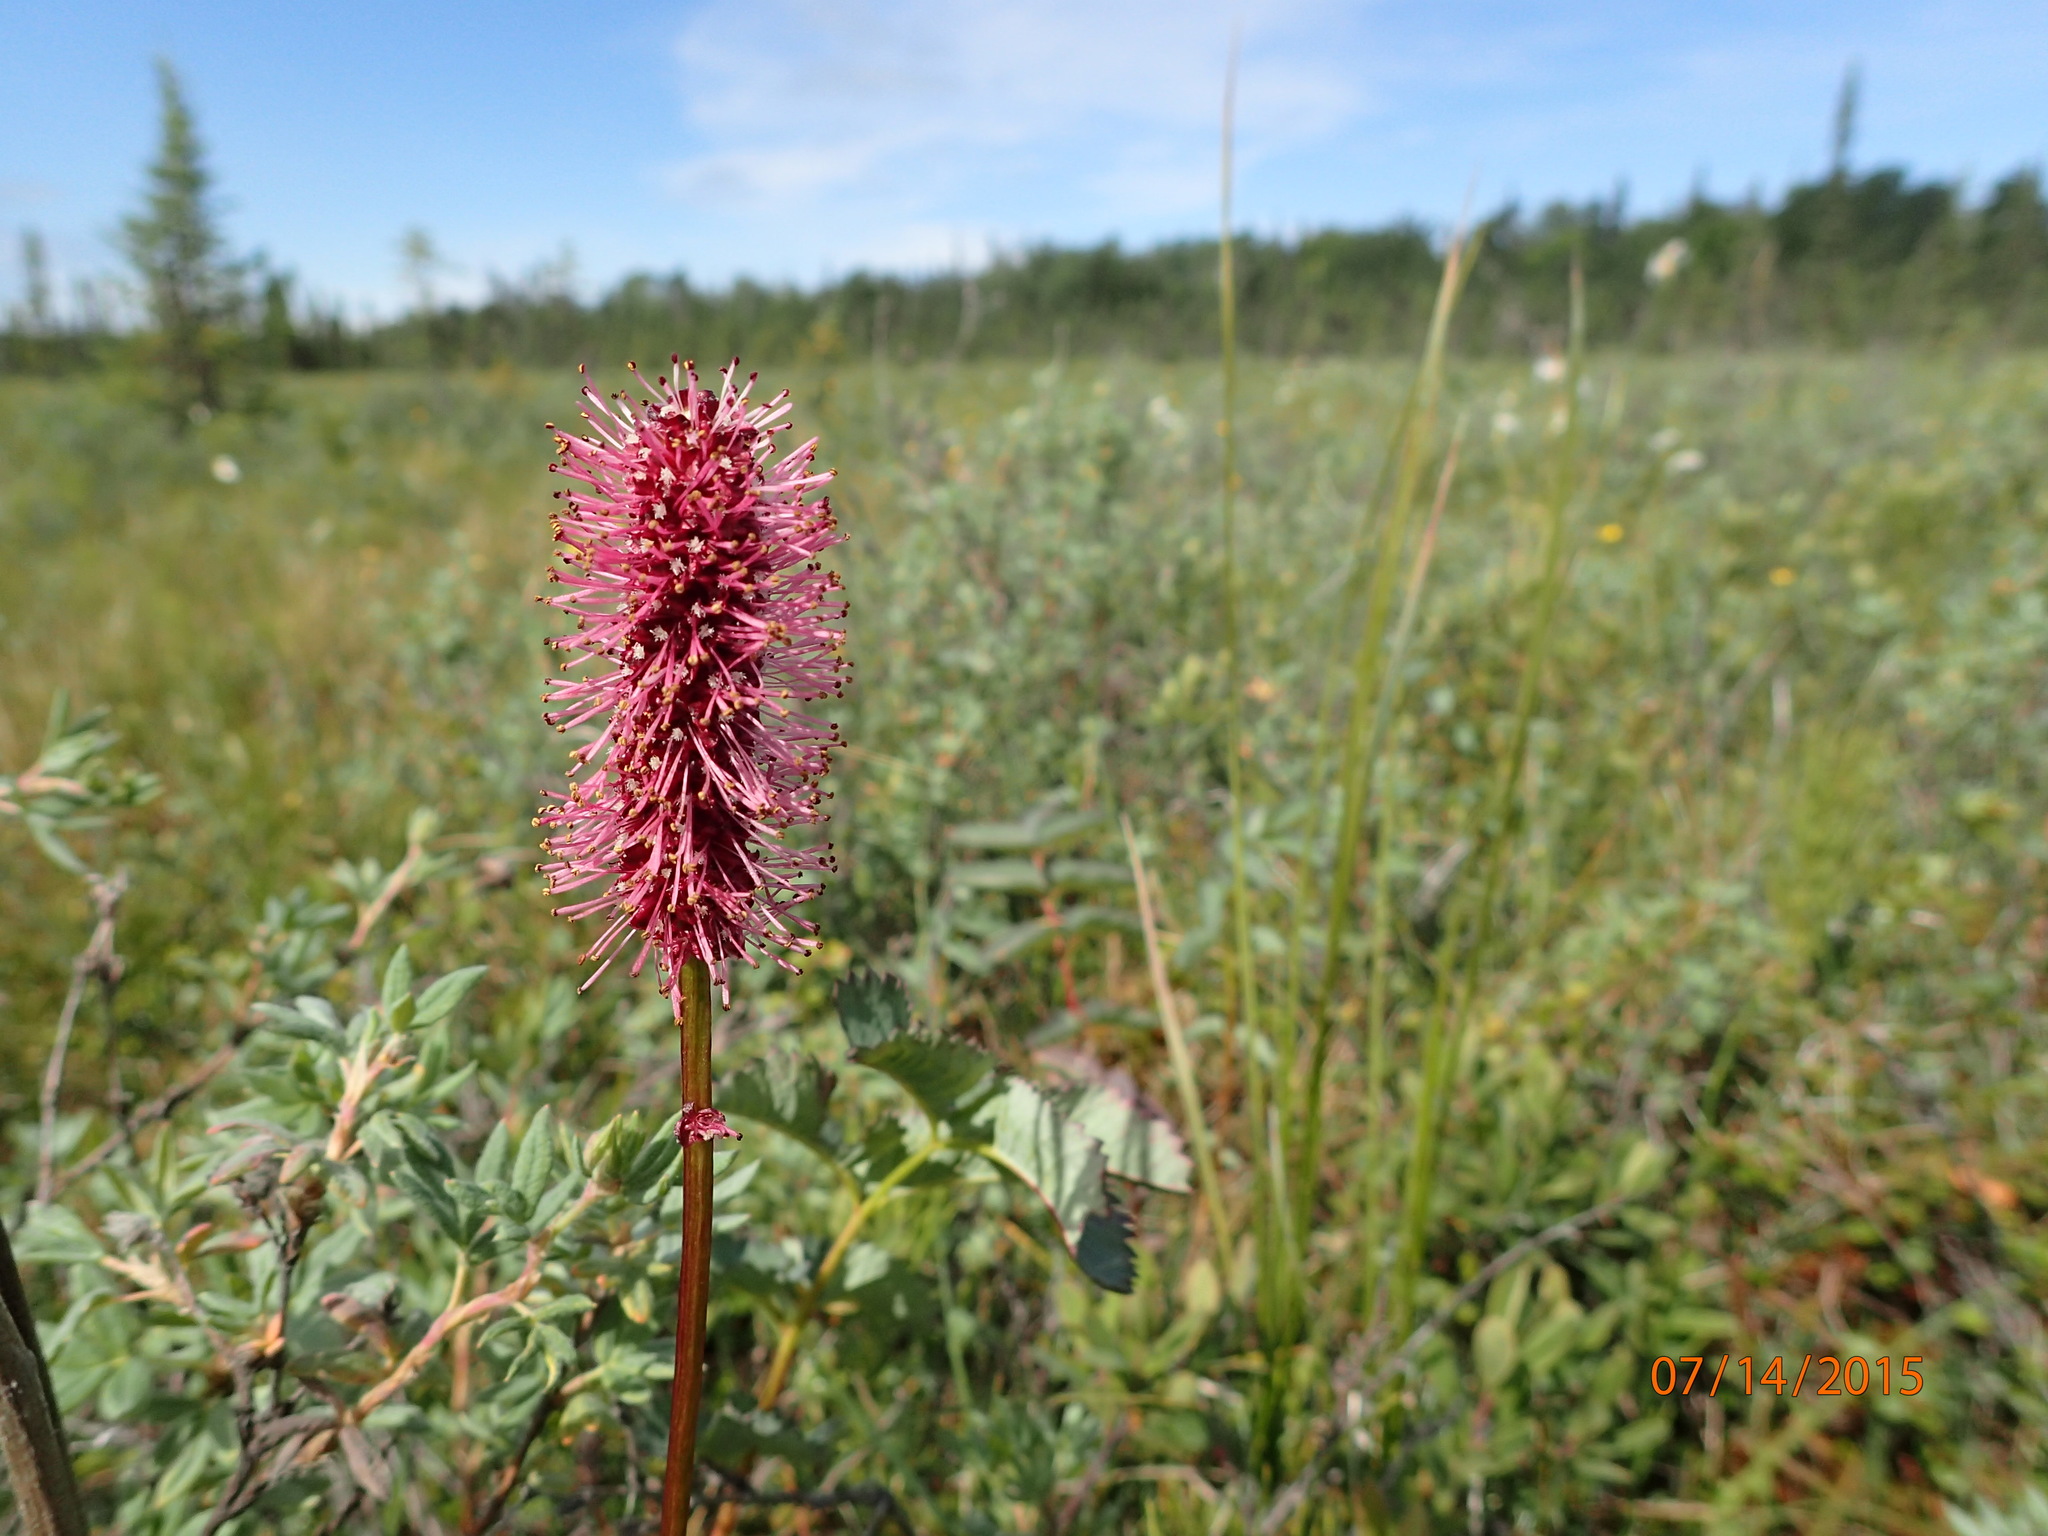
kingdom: Plantae
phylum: Tracheophyta
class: Magnoliopsida
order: Rosales
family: Rosaceae
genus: Sanguisorba
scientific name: Sanguisorba menziesii
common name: Menzies' burnet
